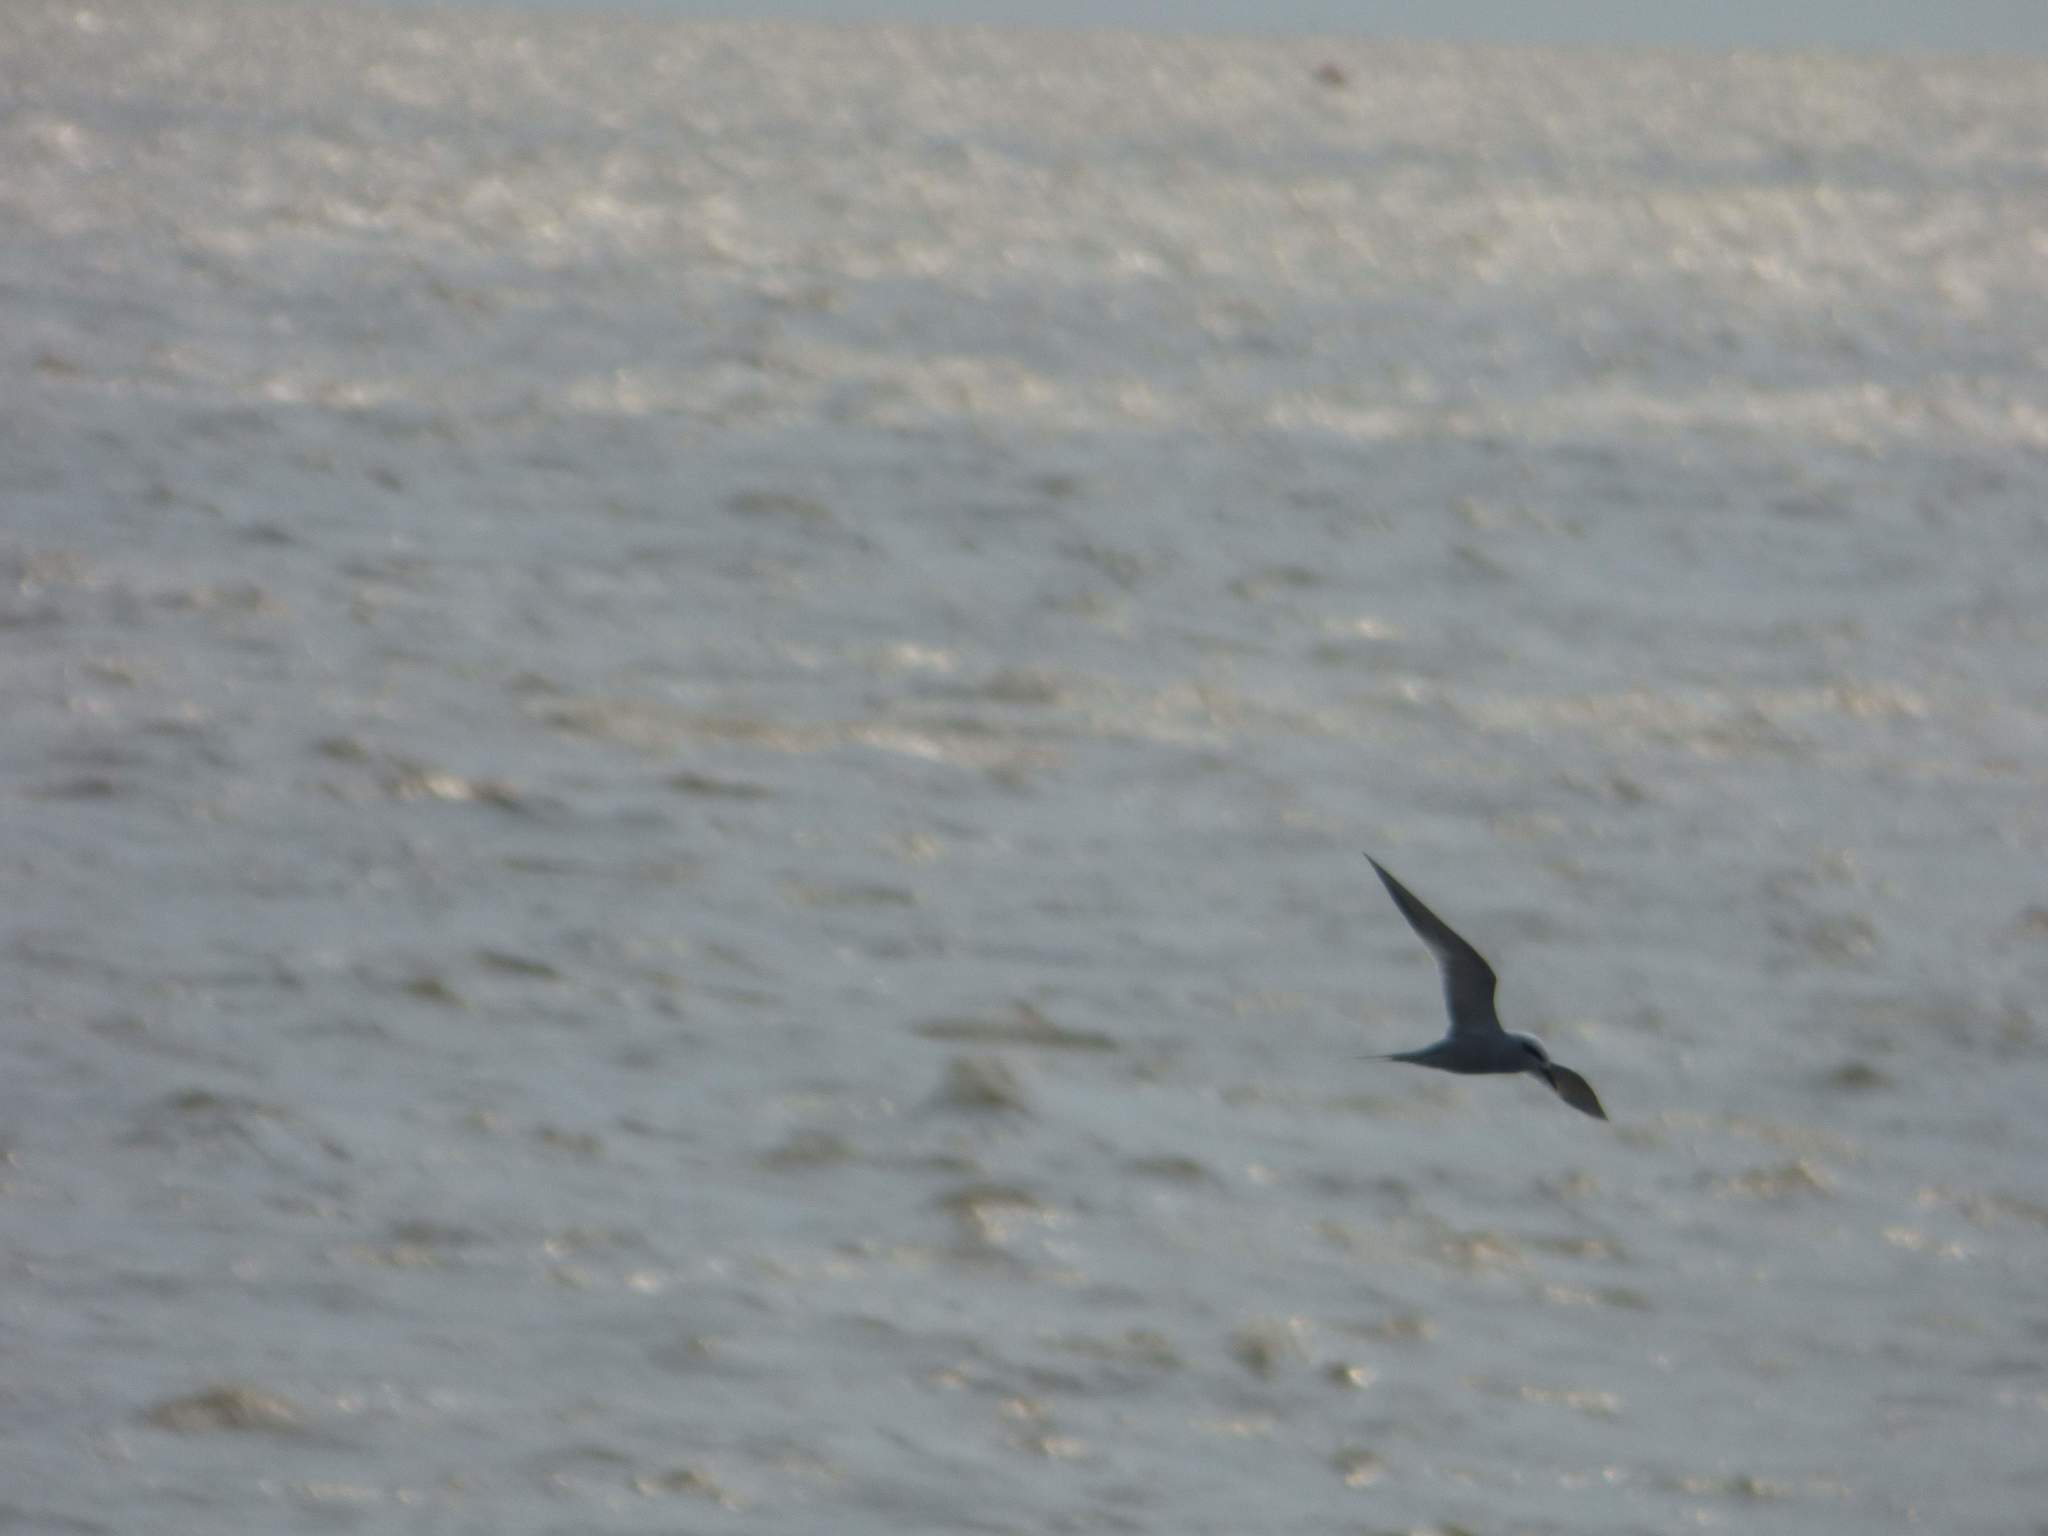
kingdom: Animalia
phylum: Chordata
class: Aves
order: Charadriiformes
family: Laridae
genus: Sterna
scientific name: Sterna trudeaui
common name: Snowy-crowned tern
